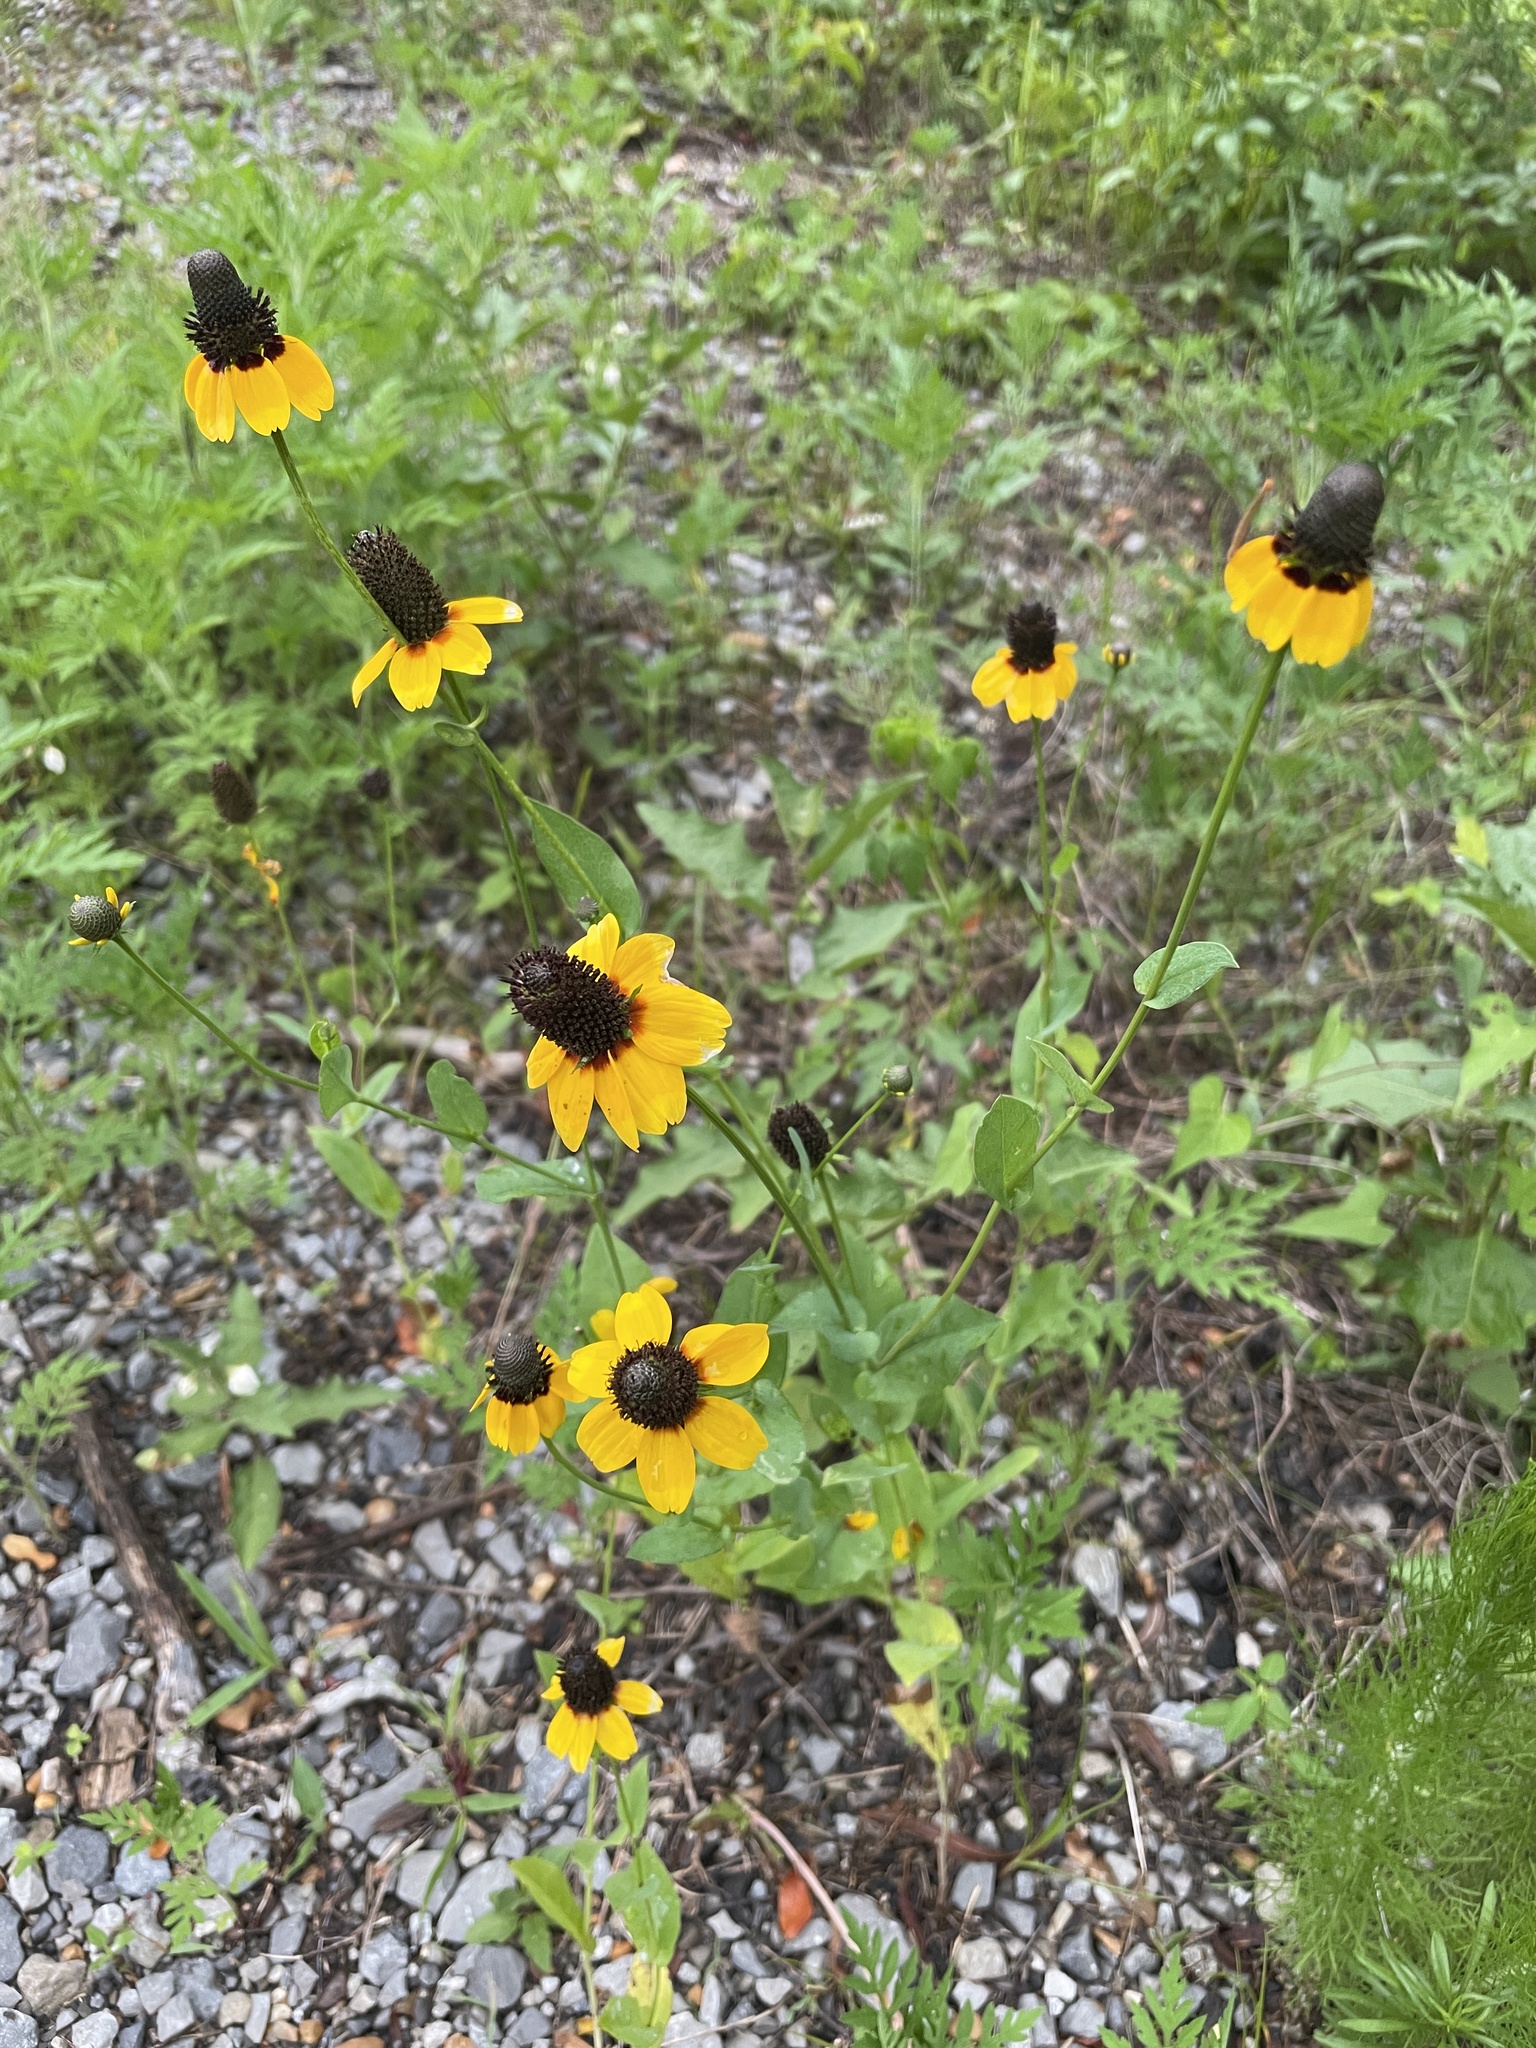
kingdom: Plantae
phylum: Tracheophyta
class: Magnoliopsida
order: Asterales
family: Asteraceae
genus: Rudbeckia
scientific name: Rudbeckia amplexicaulis
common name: Clasping-leaf coneflower
